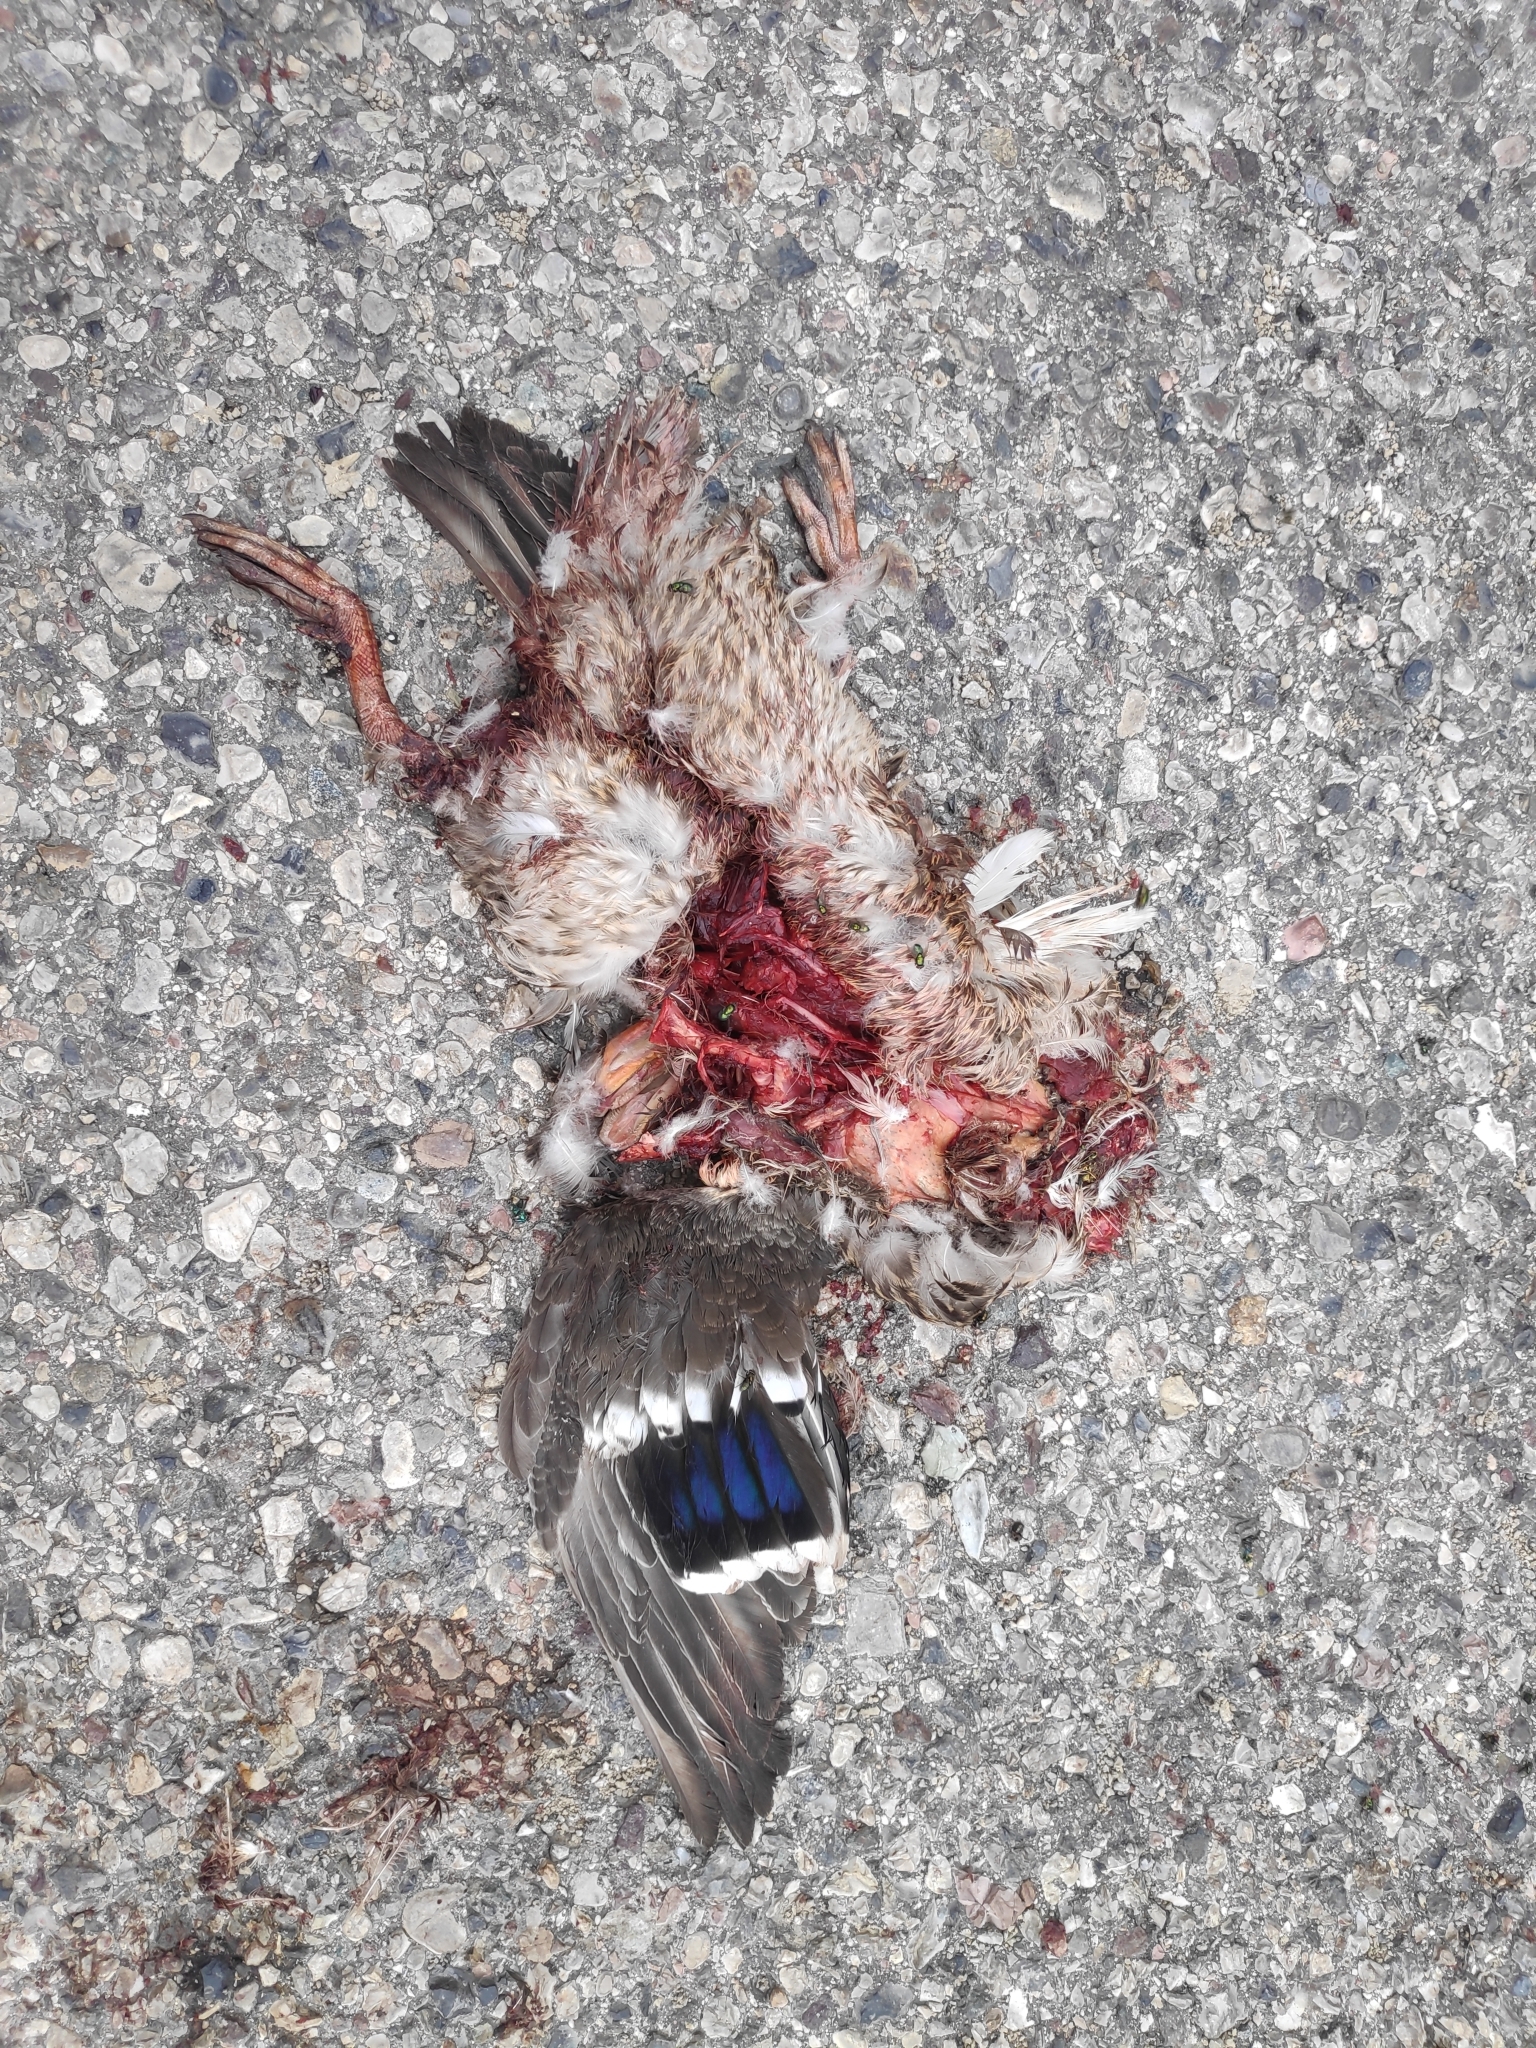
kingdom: Animalia
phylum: Chordata
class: Aves
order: Anseriformes
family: Anatidae
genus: Anas
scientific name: Anas platyrhynchos
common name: Mallard
